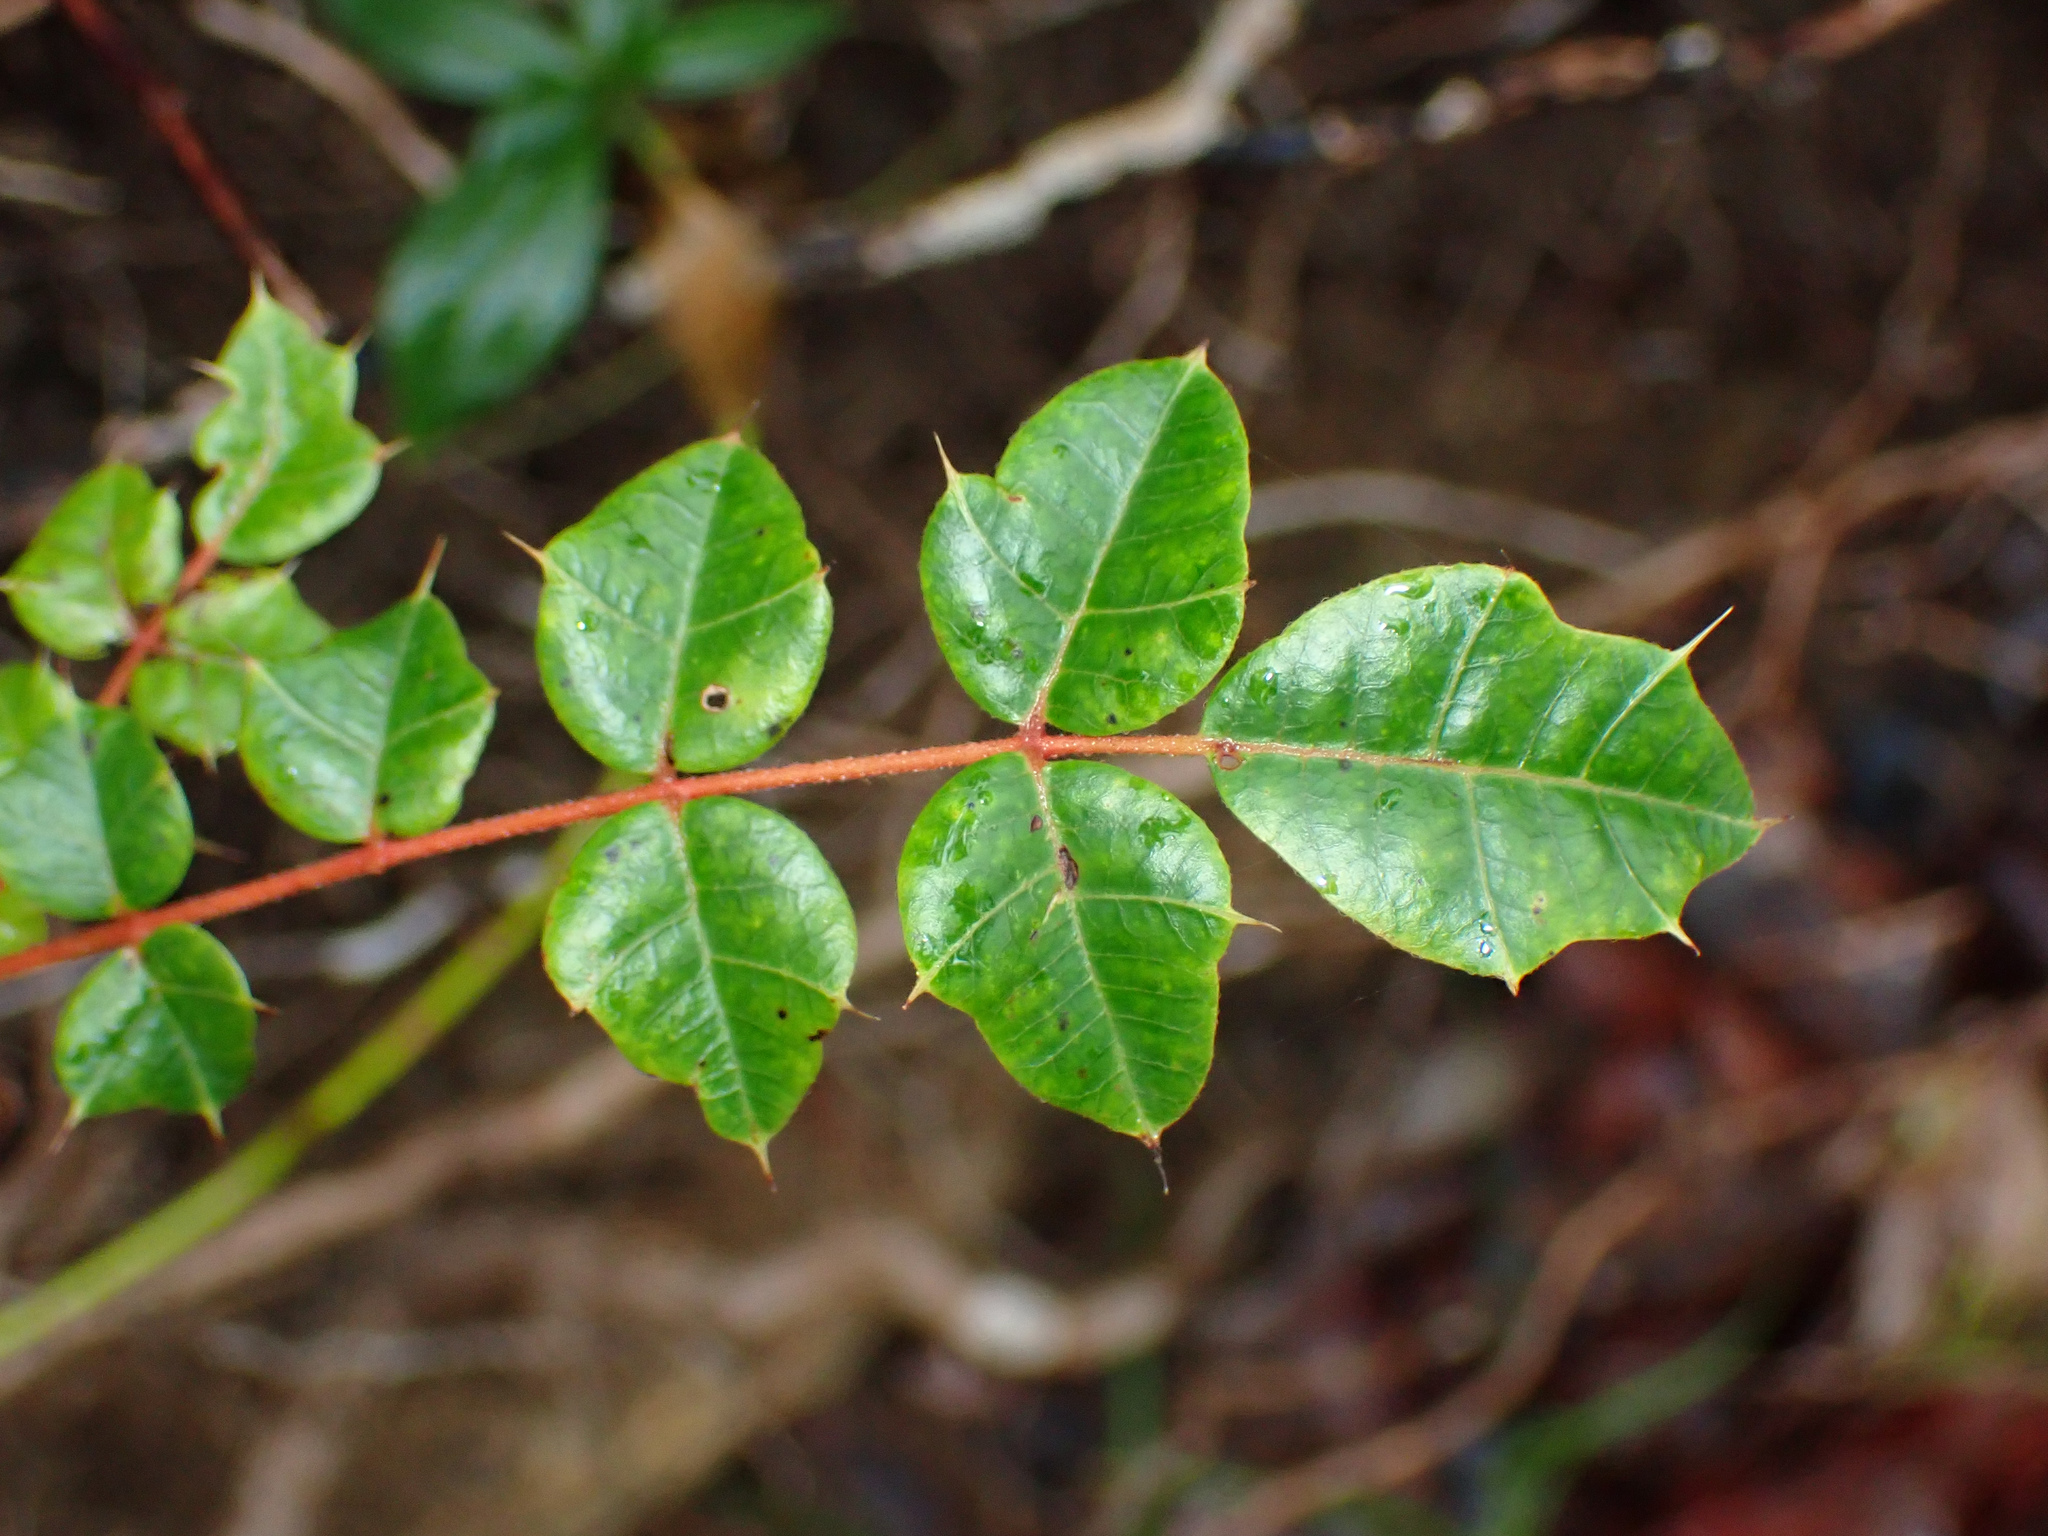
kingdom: Plantae
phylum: Tracheophyta
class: Magnoliopsida
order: Sapindales
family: Anacardiaceae
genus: Comocladia
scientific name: Comocladia dodonaea
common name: Poison ash
